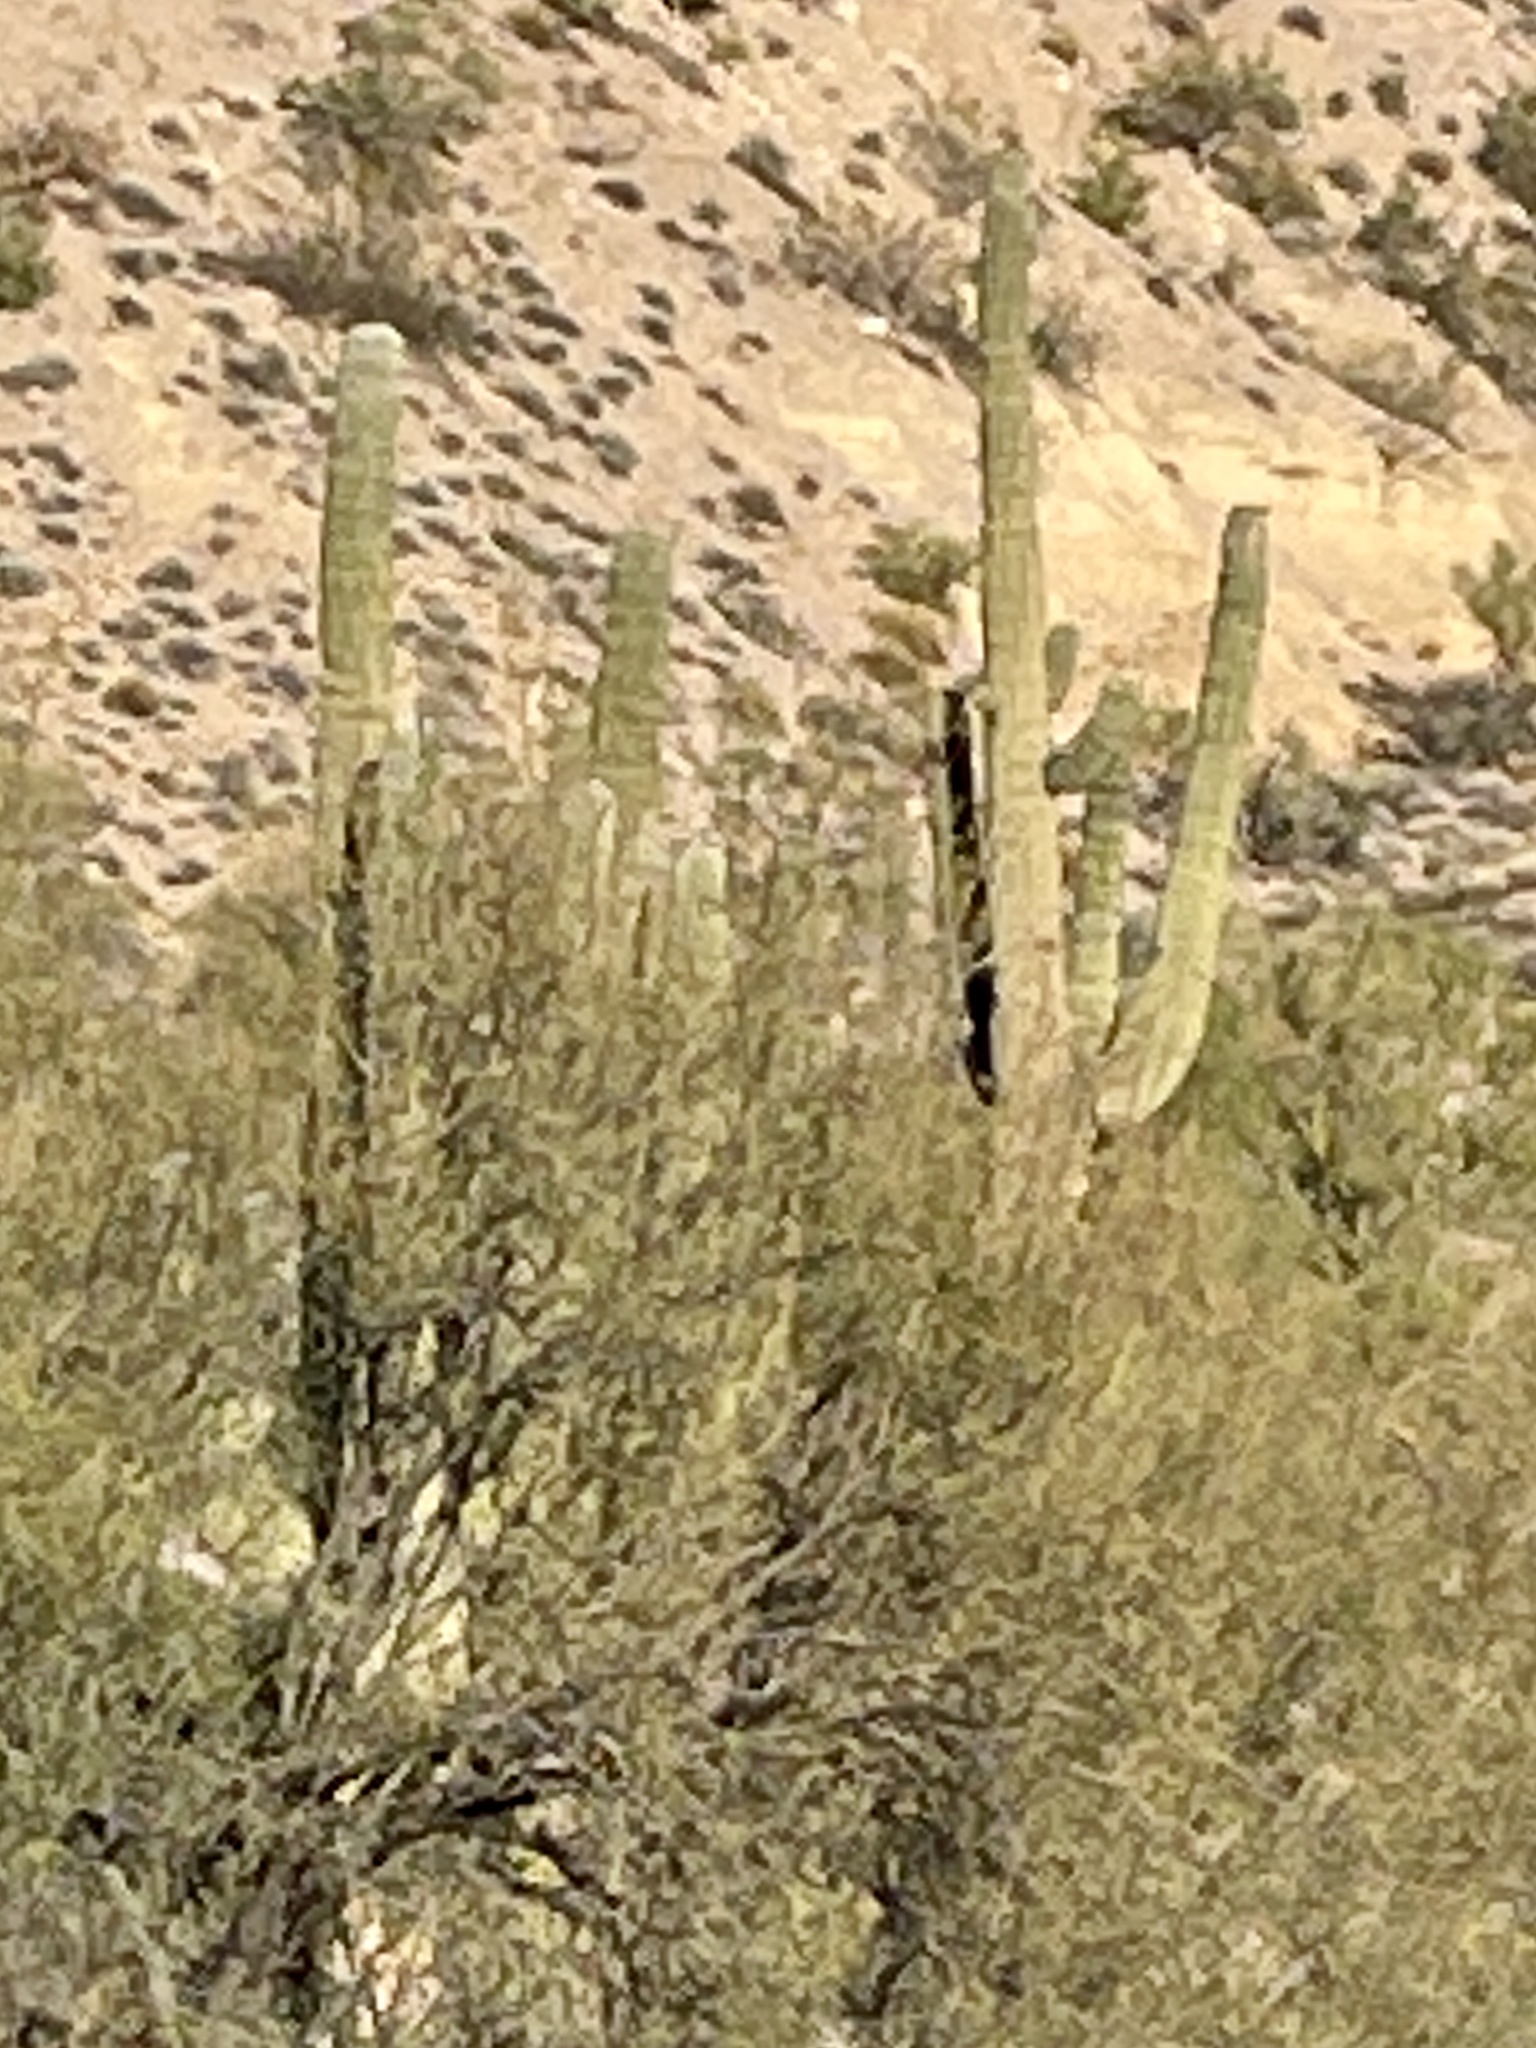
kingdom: Plantae
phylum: Tracheophyta
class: Magnoliopsida
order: Caryophyllales
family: Cactaceae
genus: Carnegiea
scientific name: Carnegiea gigantea
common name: Saguaro
